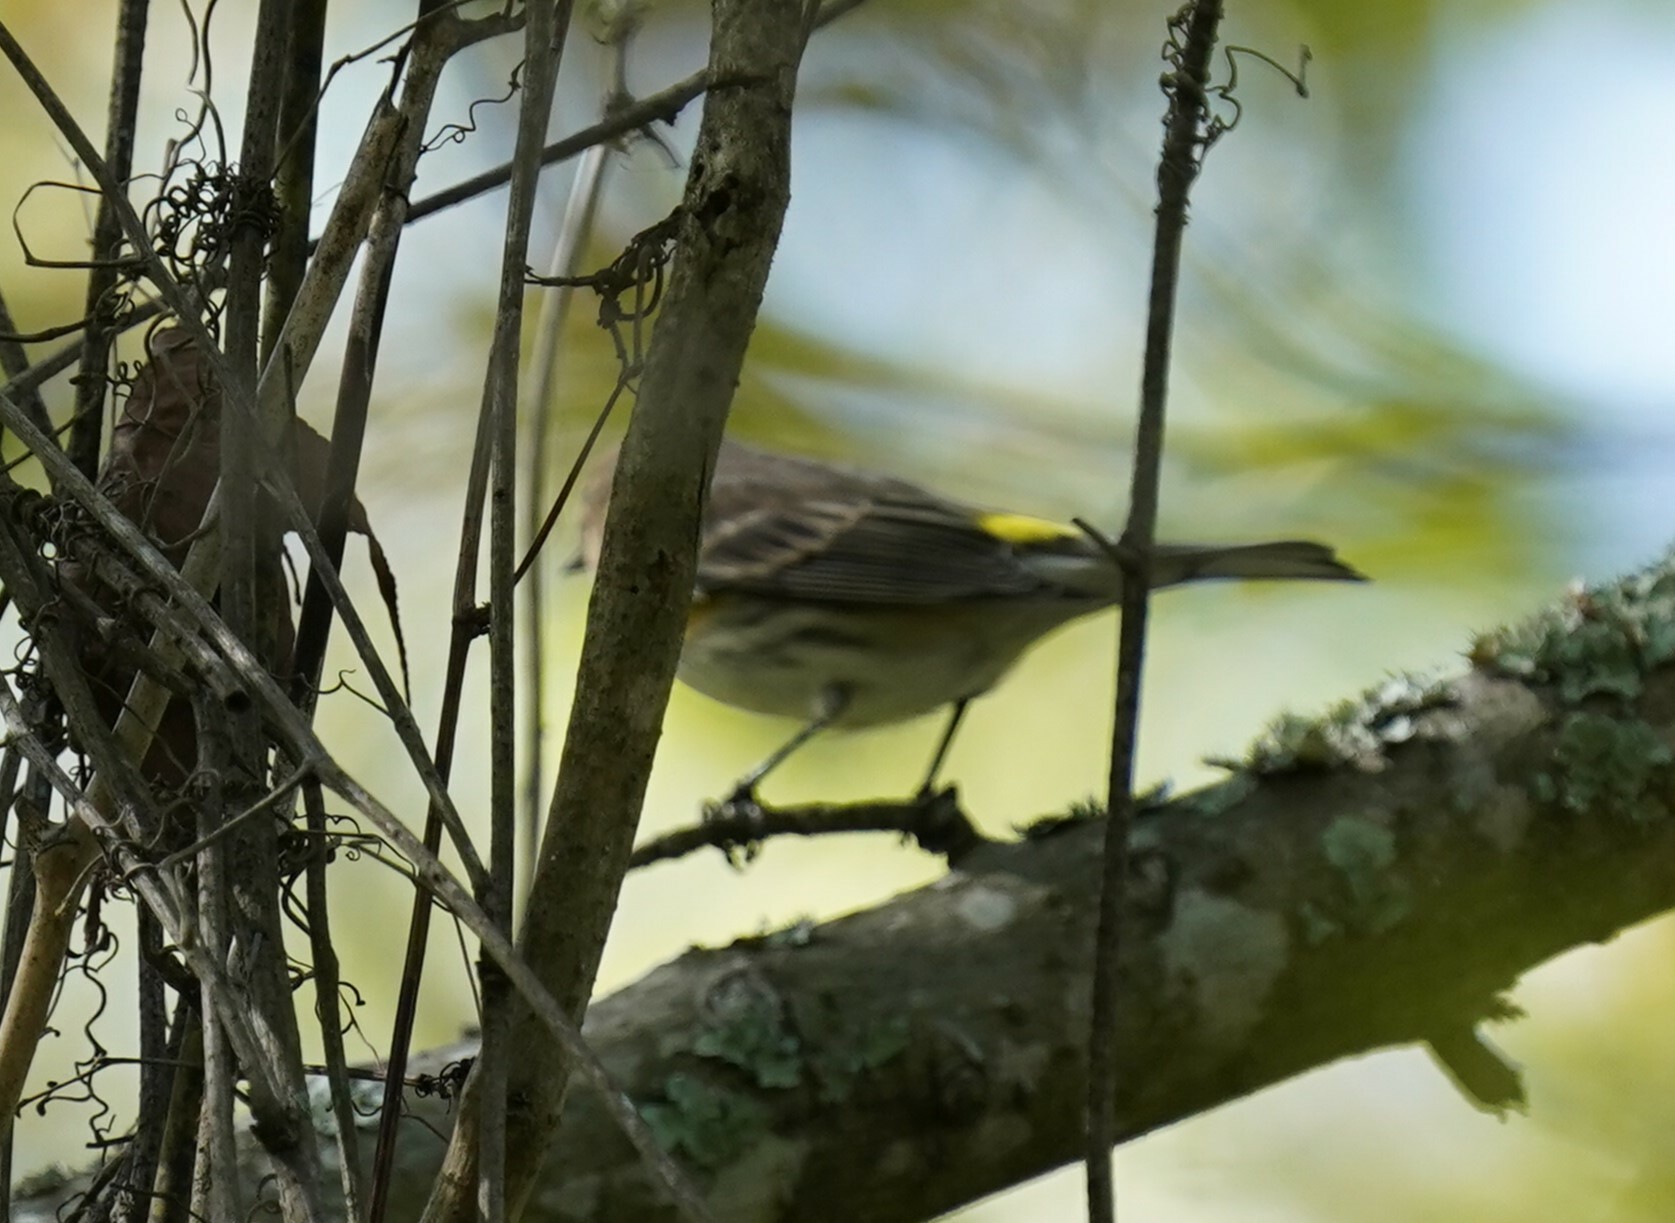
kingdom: Animalia
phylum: Chordata
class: Aves
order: Passeriformes
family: Parulidae
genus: Setophaga
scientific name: Setophaga coronata
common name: Myrtle warbler
